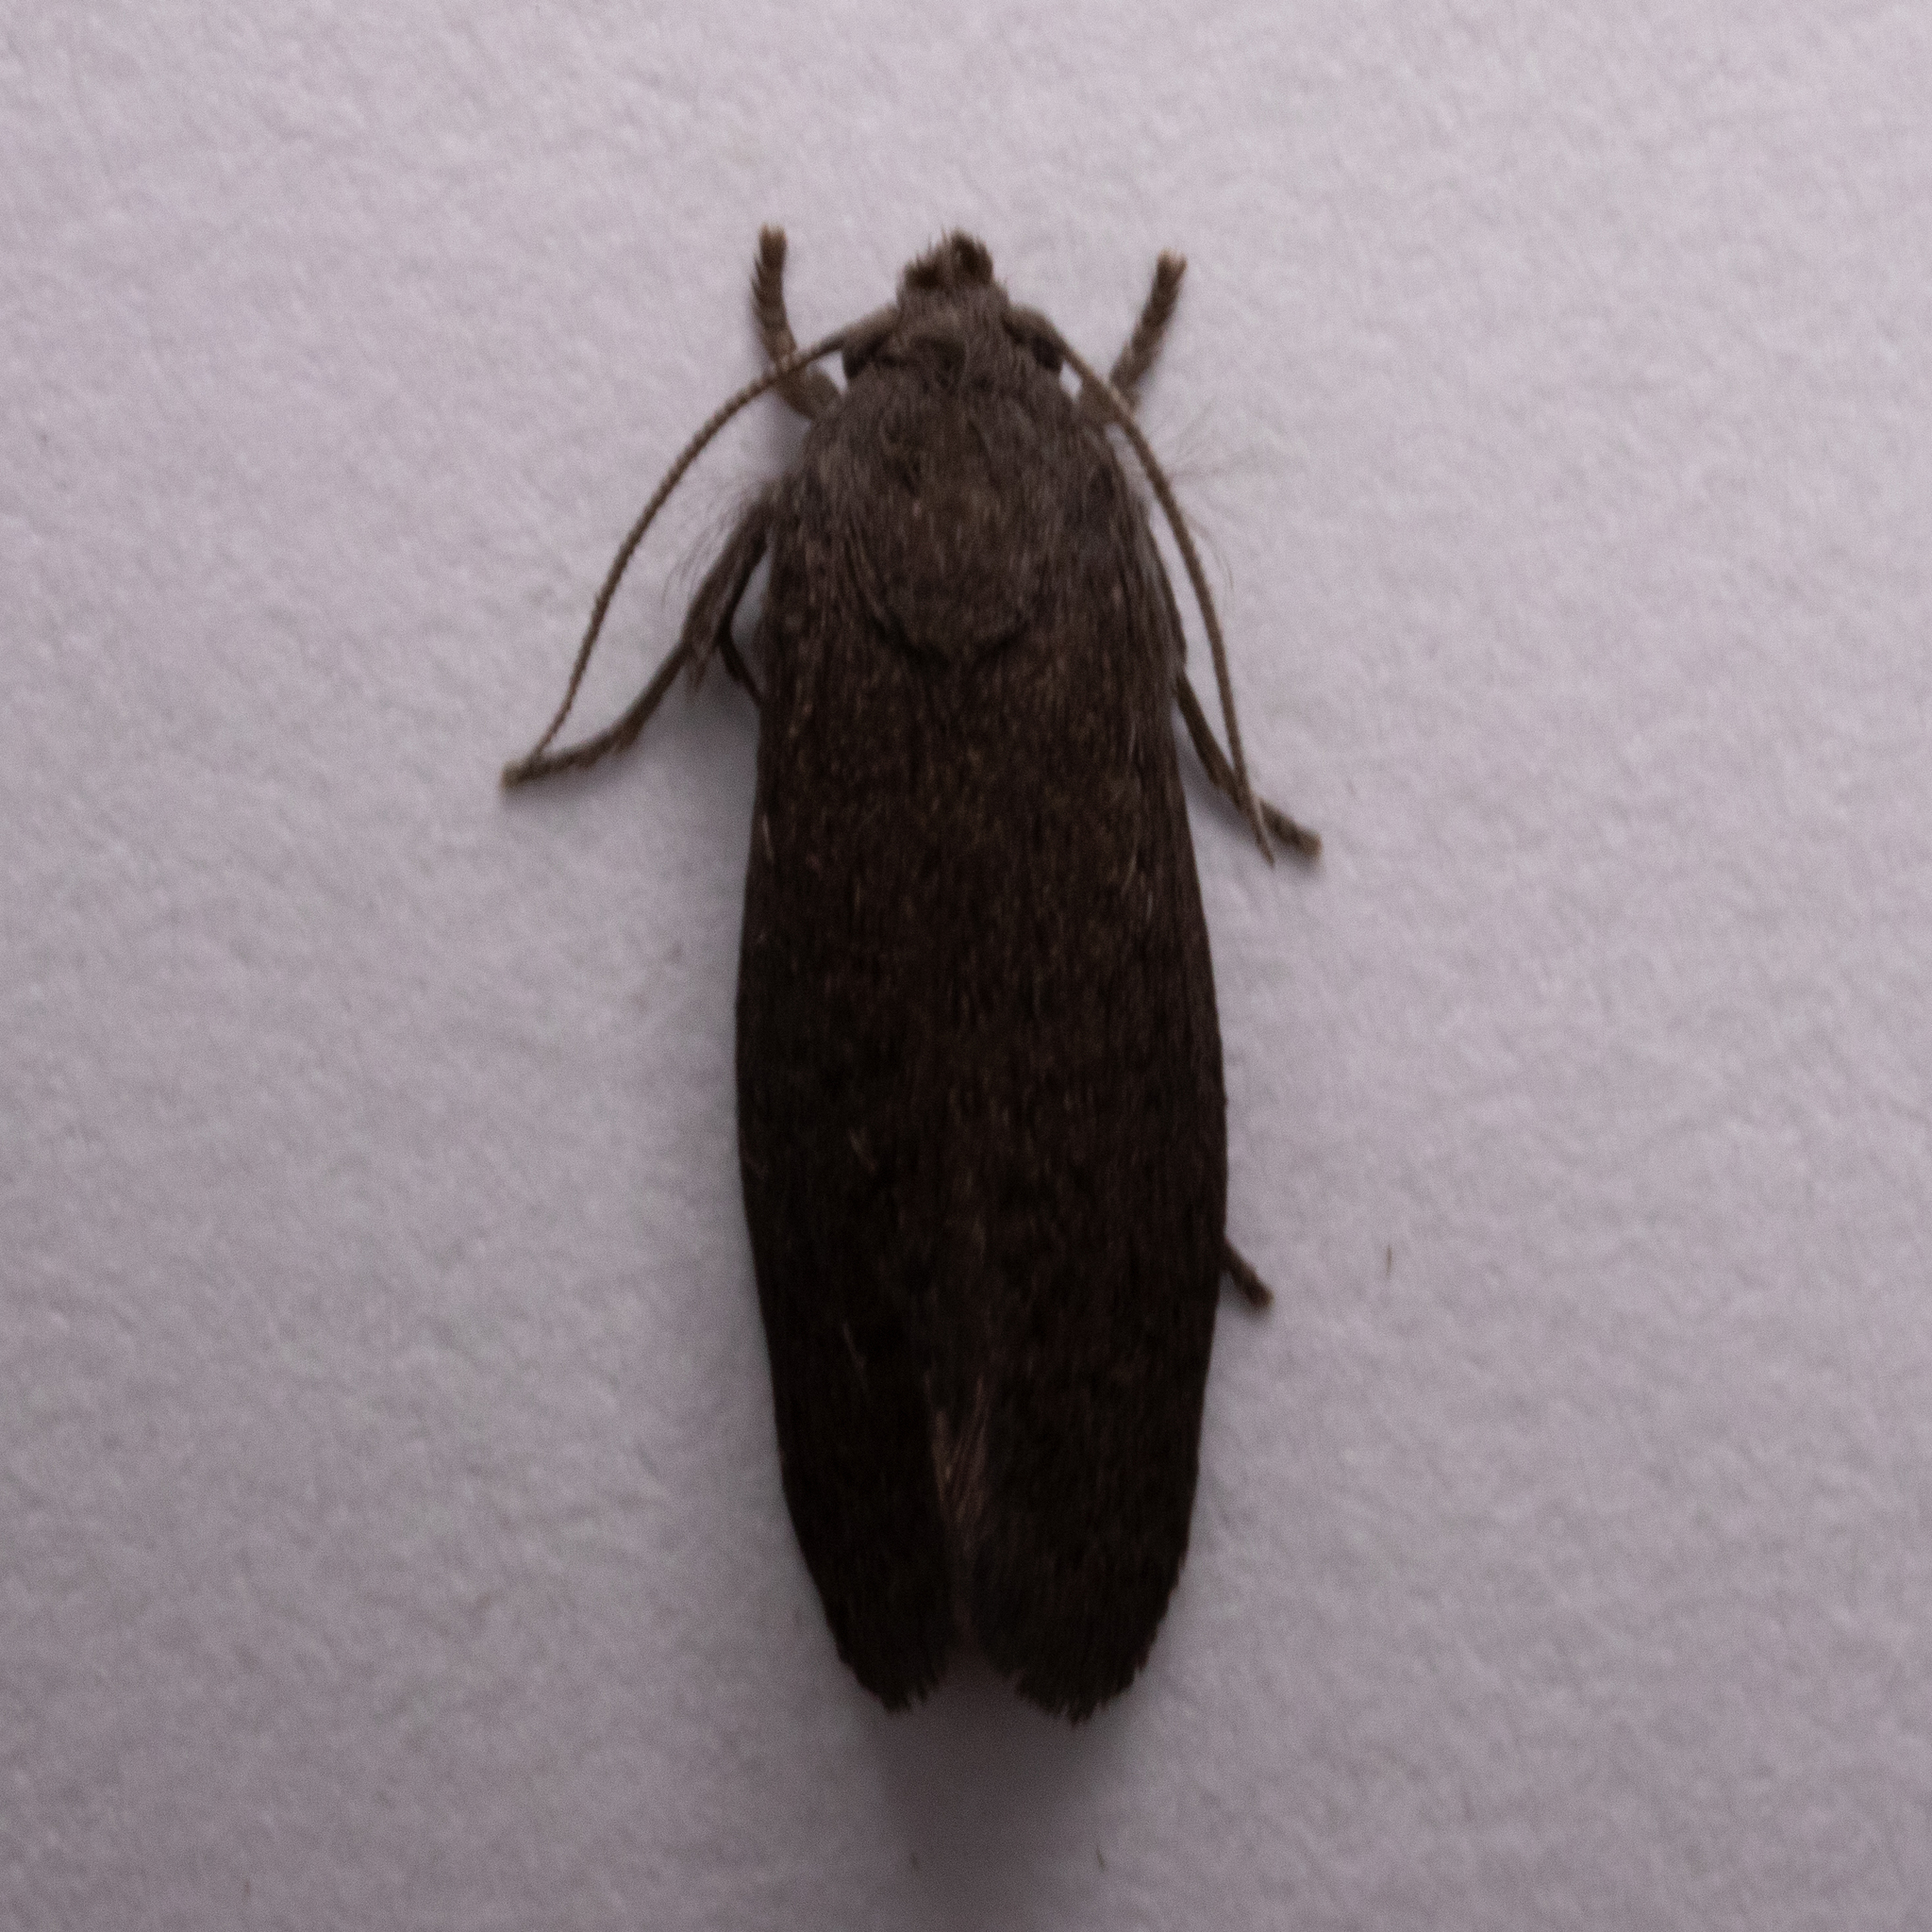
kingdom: Animalia
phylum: Arthropoda
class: Insecta
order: Lepidoptera
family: Tineidae
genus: Acrolophus
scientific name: Acrolophus heppneri
